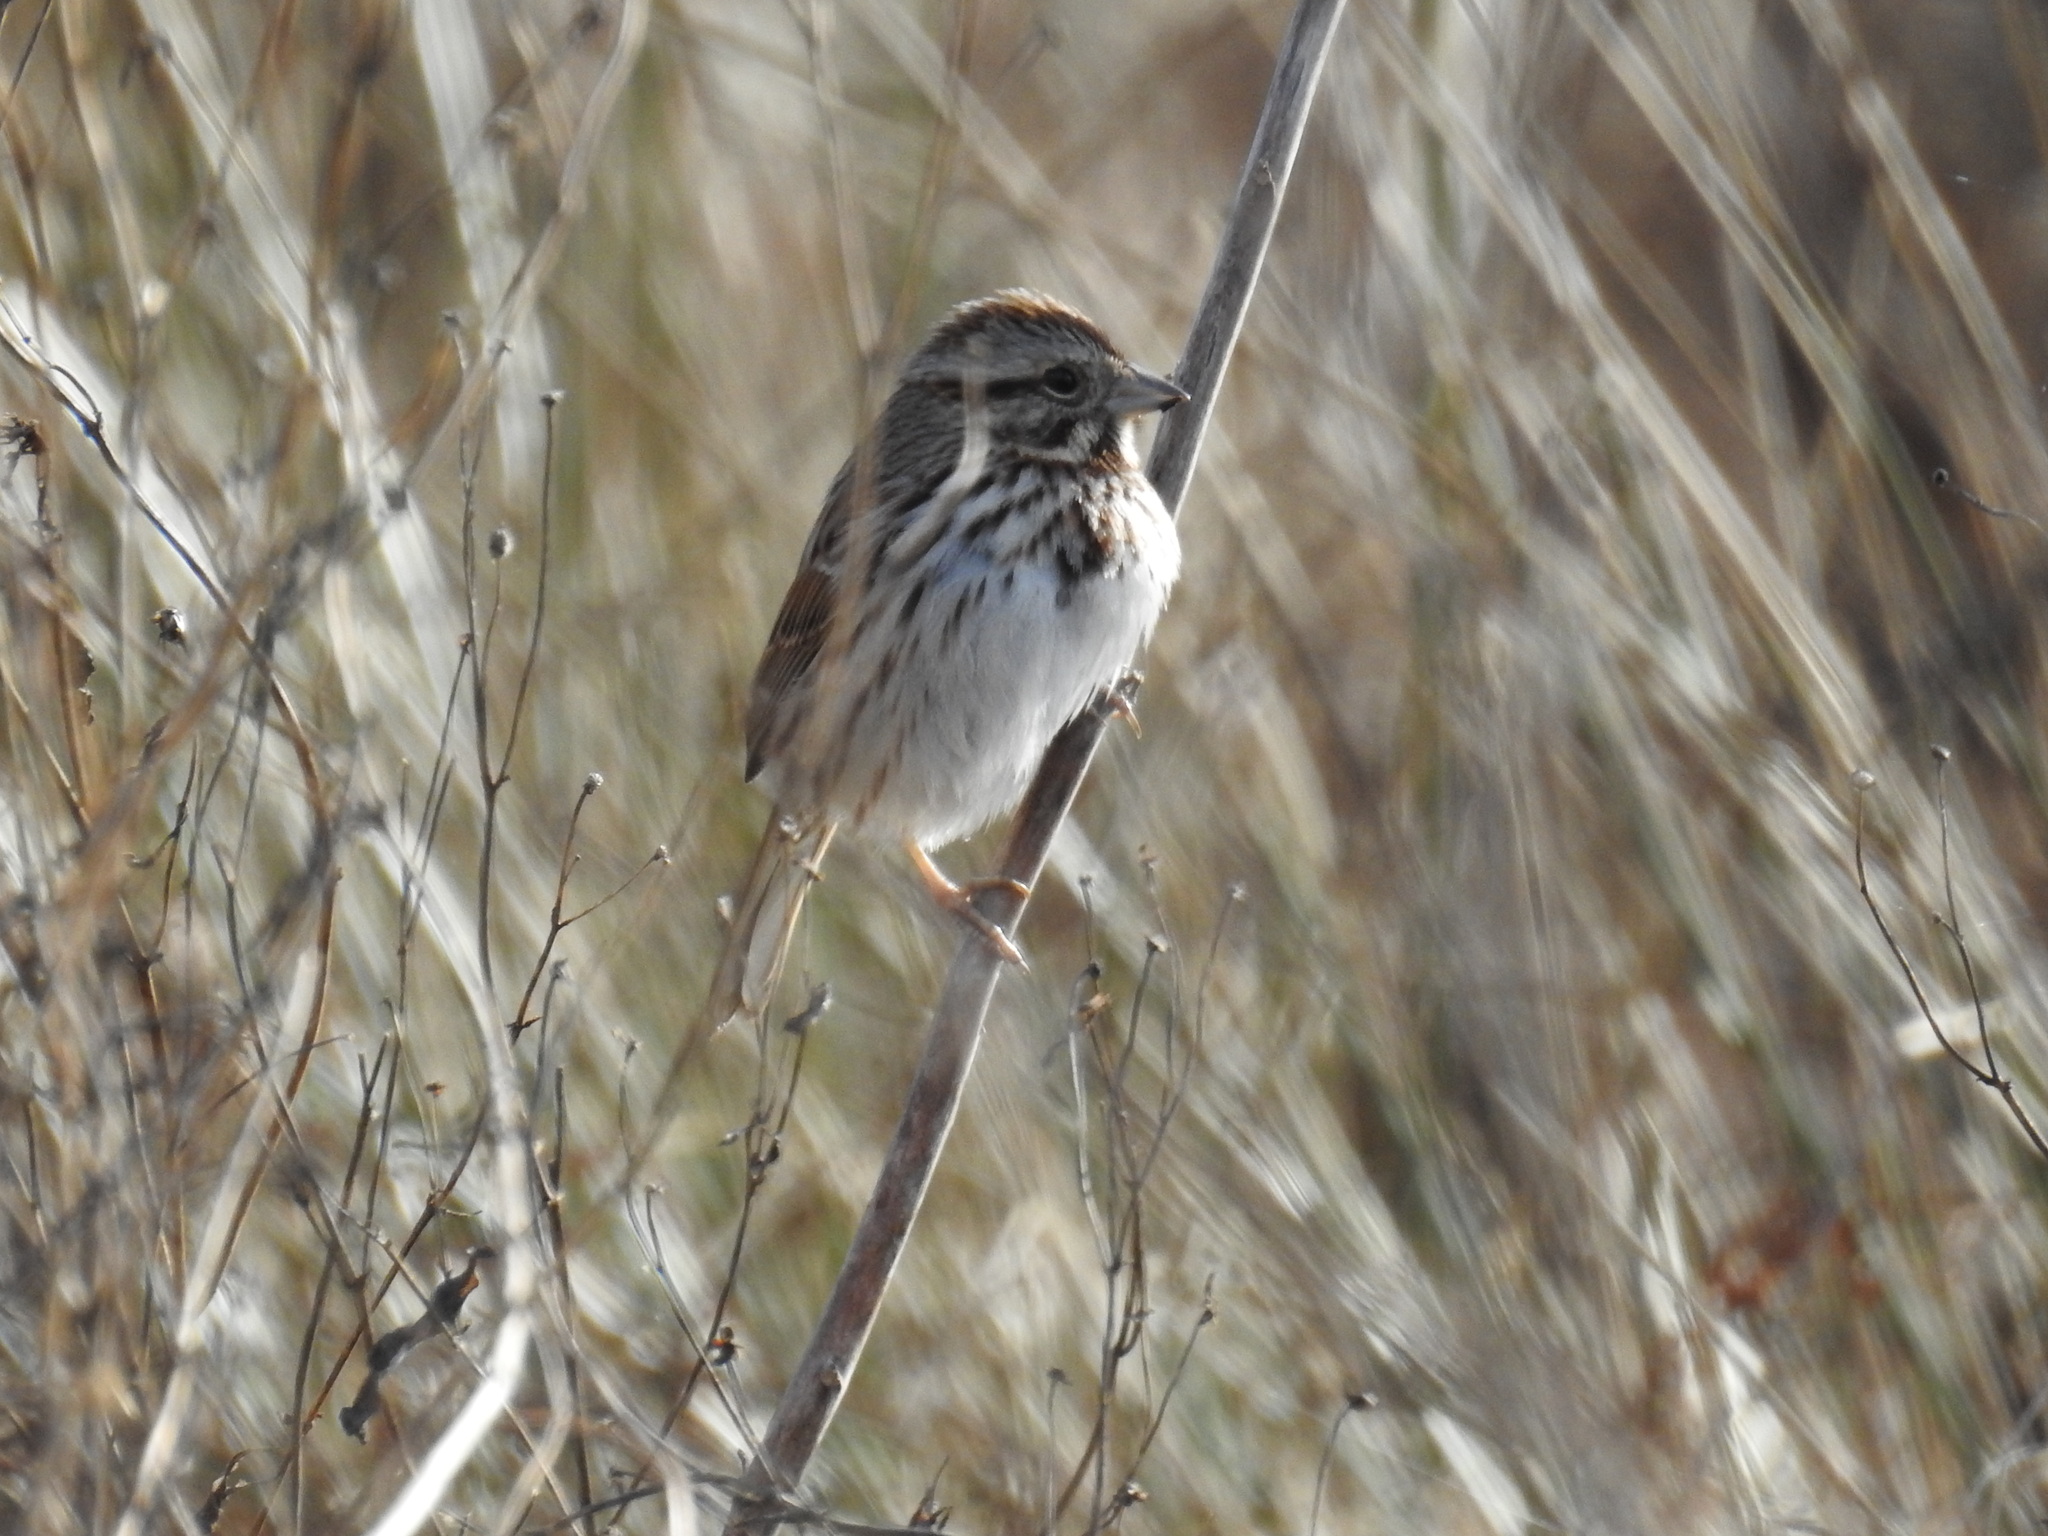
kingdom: Animalia
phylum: Chordata
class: Aves
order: Passeriformes
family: Passerellidae
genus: Melospiza
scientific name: Melospiza melodia
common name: Song sparrow
